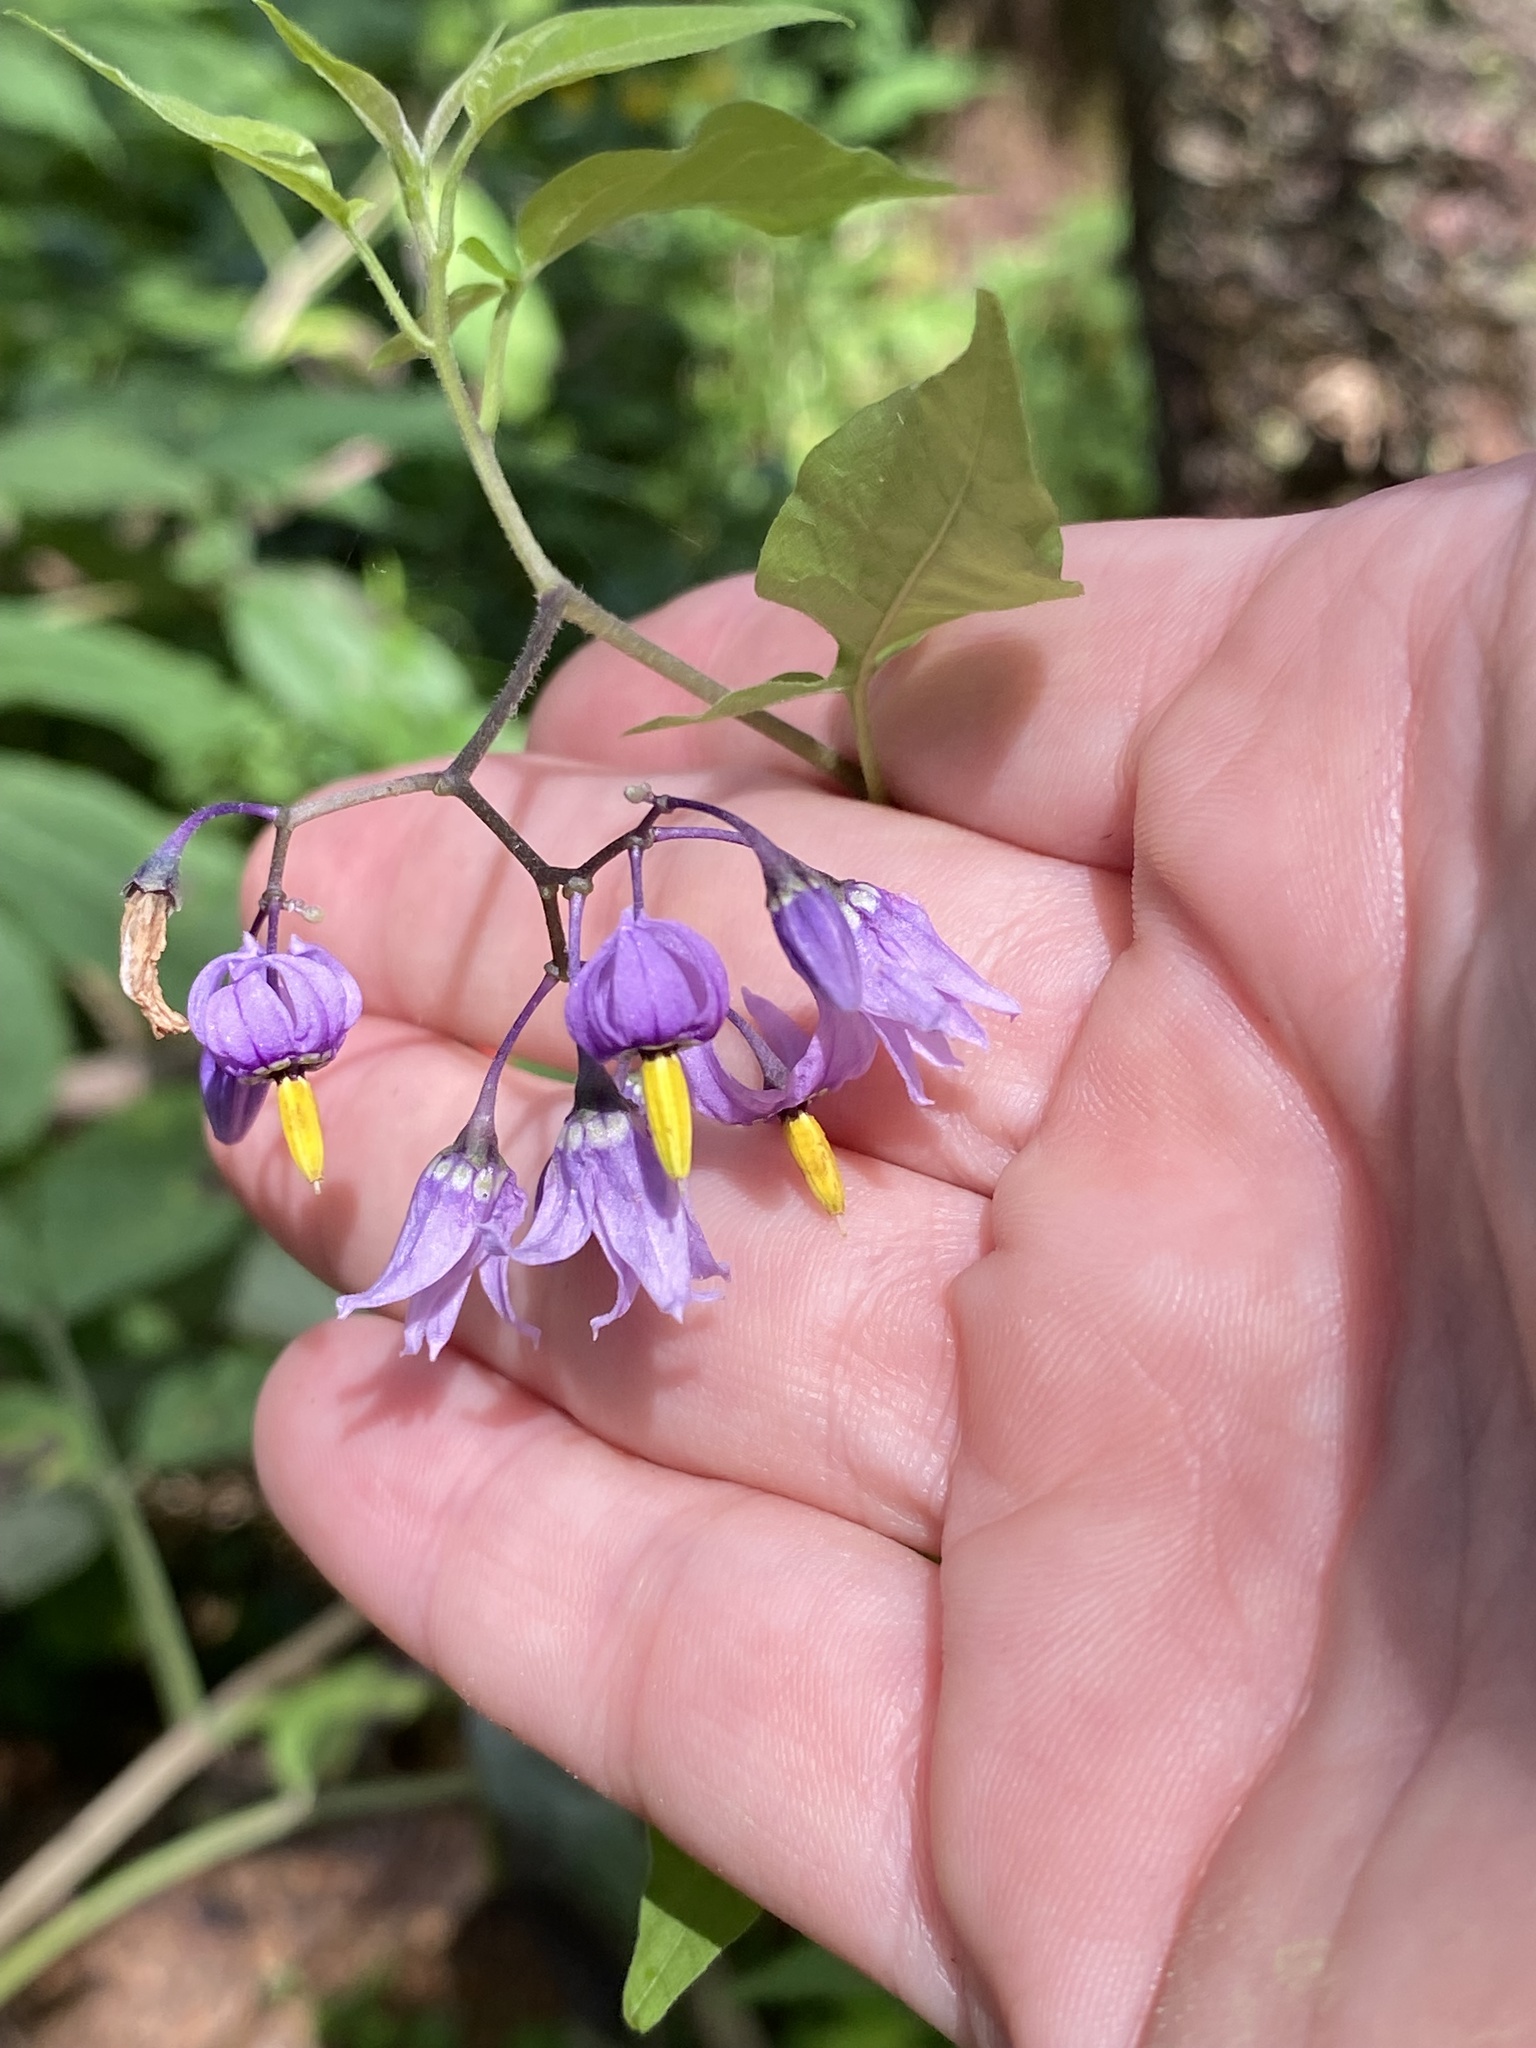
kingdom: Plantae
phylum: Tracheophyta
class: Magnoliopsida
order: Solanales
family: Solanaceae
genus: Solanum
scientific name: Solanum dulcamara
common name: Climbing nightshade
